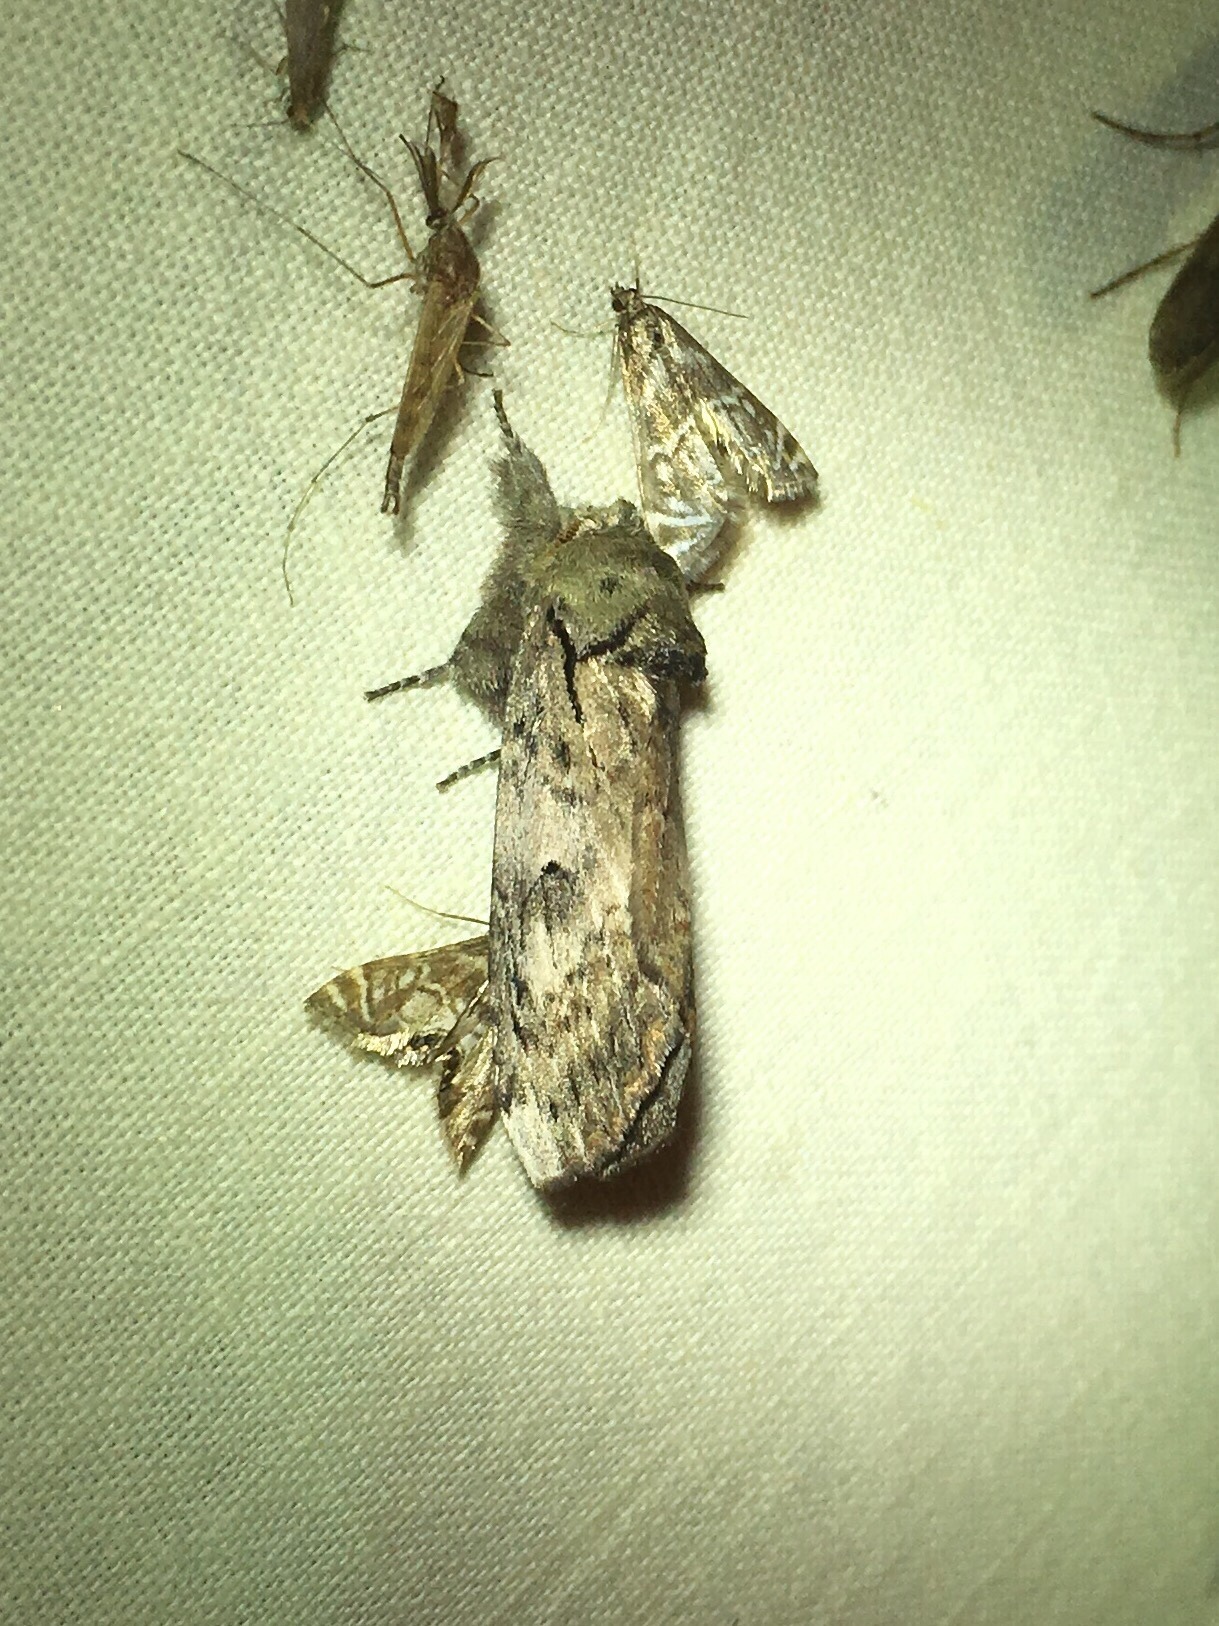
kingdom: Animalia
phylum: Arthropoda
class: Insecta
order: Lepidoptera
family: Notodontidae
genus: Schizura
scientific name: Schizura
